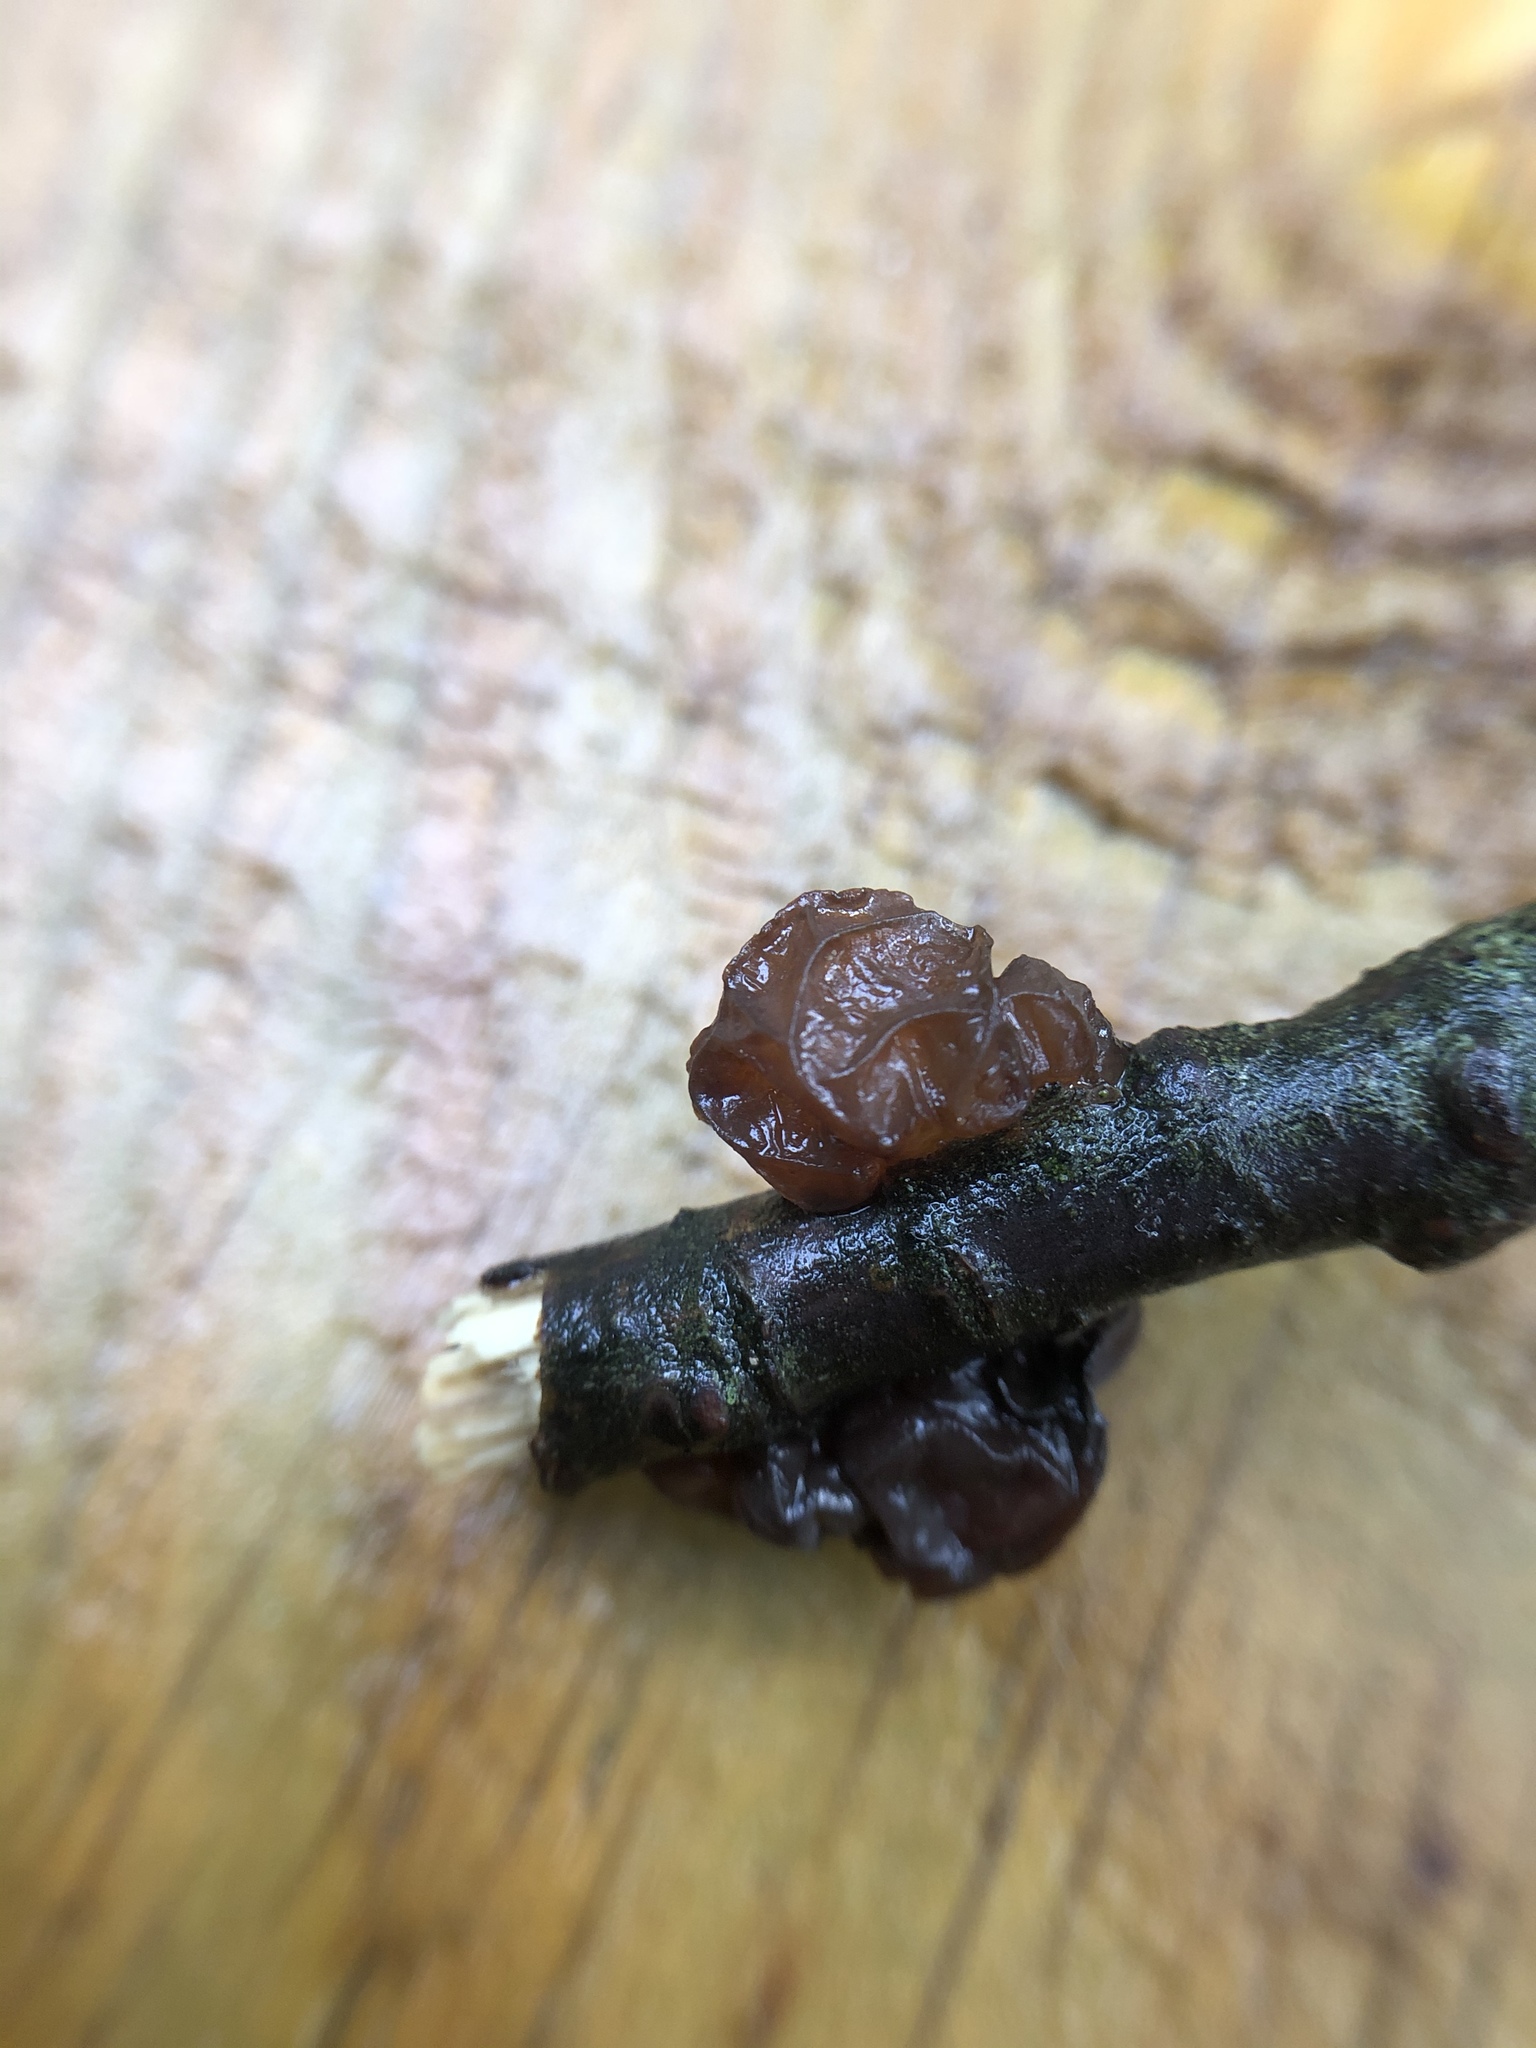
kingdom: Fungi
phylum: Basidiomycota
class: Agaricomycetes
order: Auriculariales
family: Auriculariaceae
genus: Exidia
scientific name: Exidia
